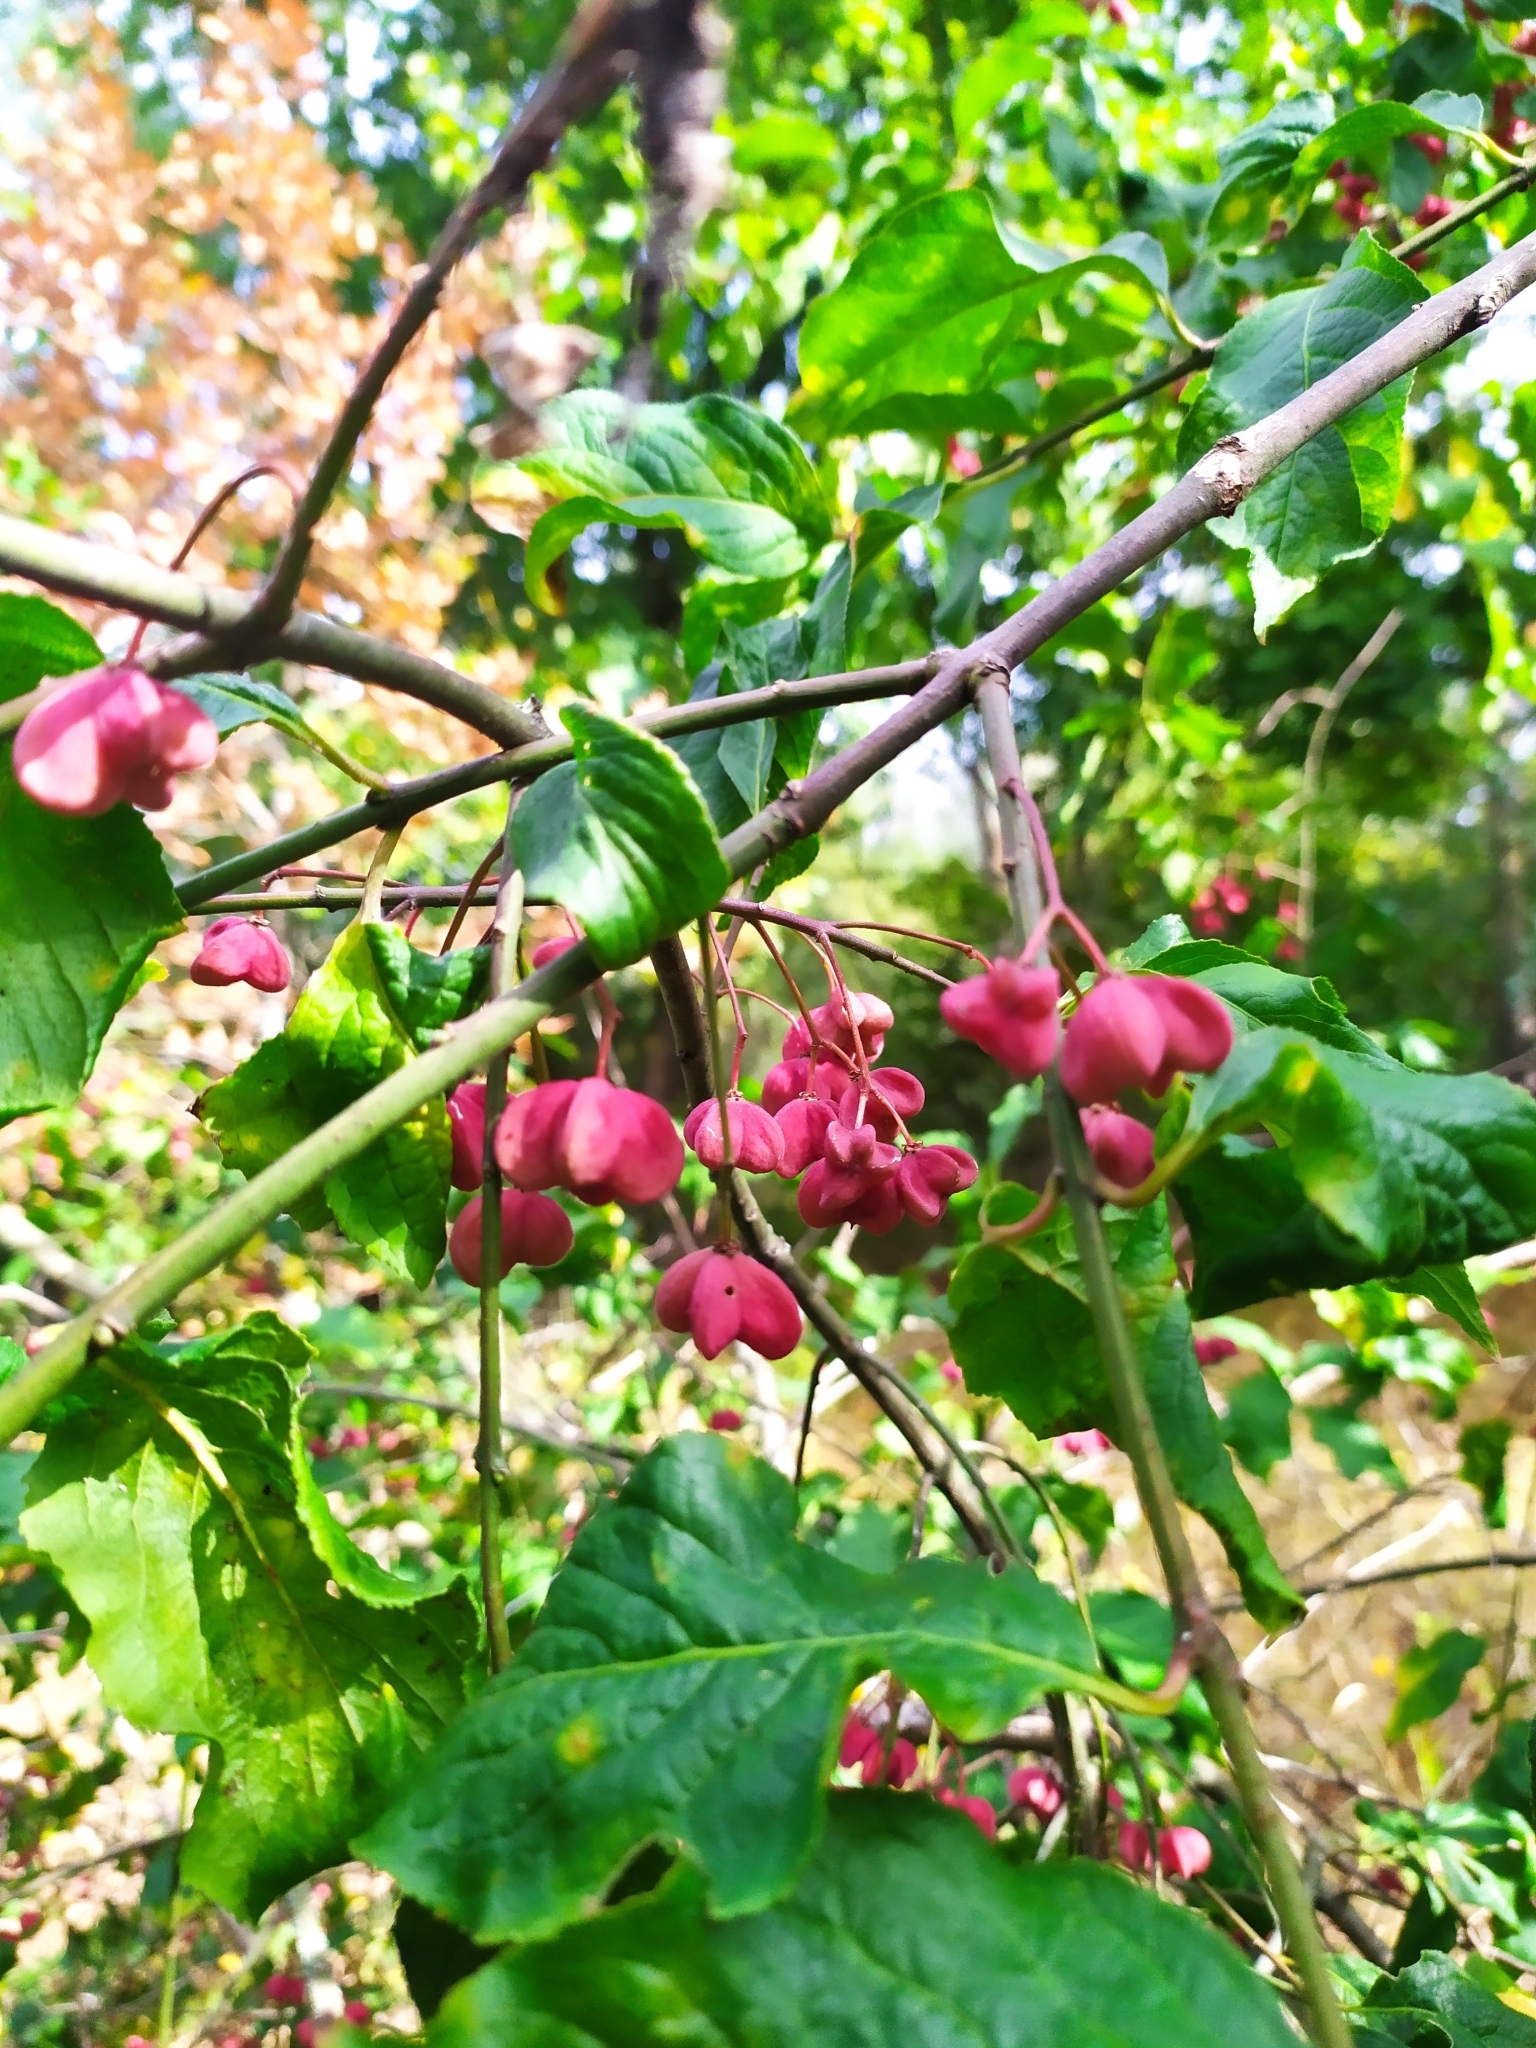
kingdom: Plantae
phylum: Tracheophyta
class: Magnoliopsida
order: Celastrales
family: Celastraceae
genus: Euonymus
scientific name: Euonymus europaeus
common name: Spindle
